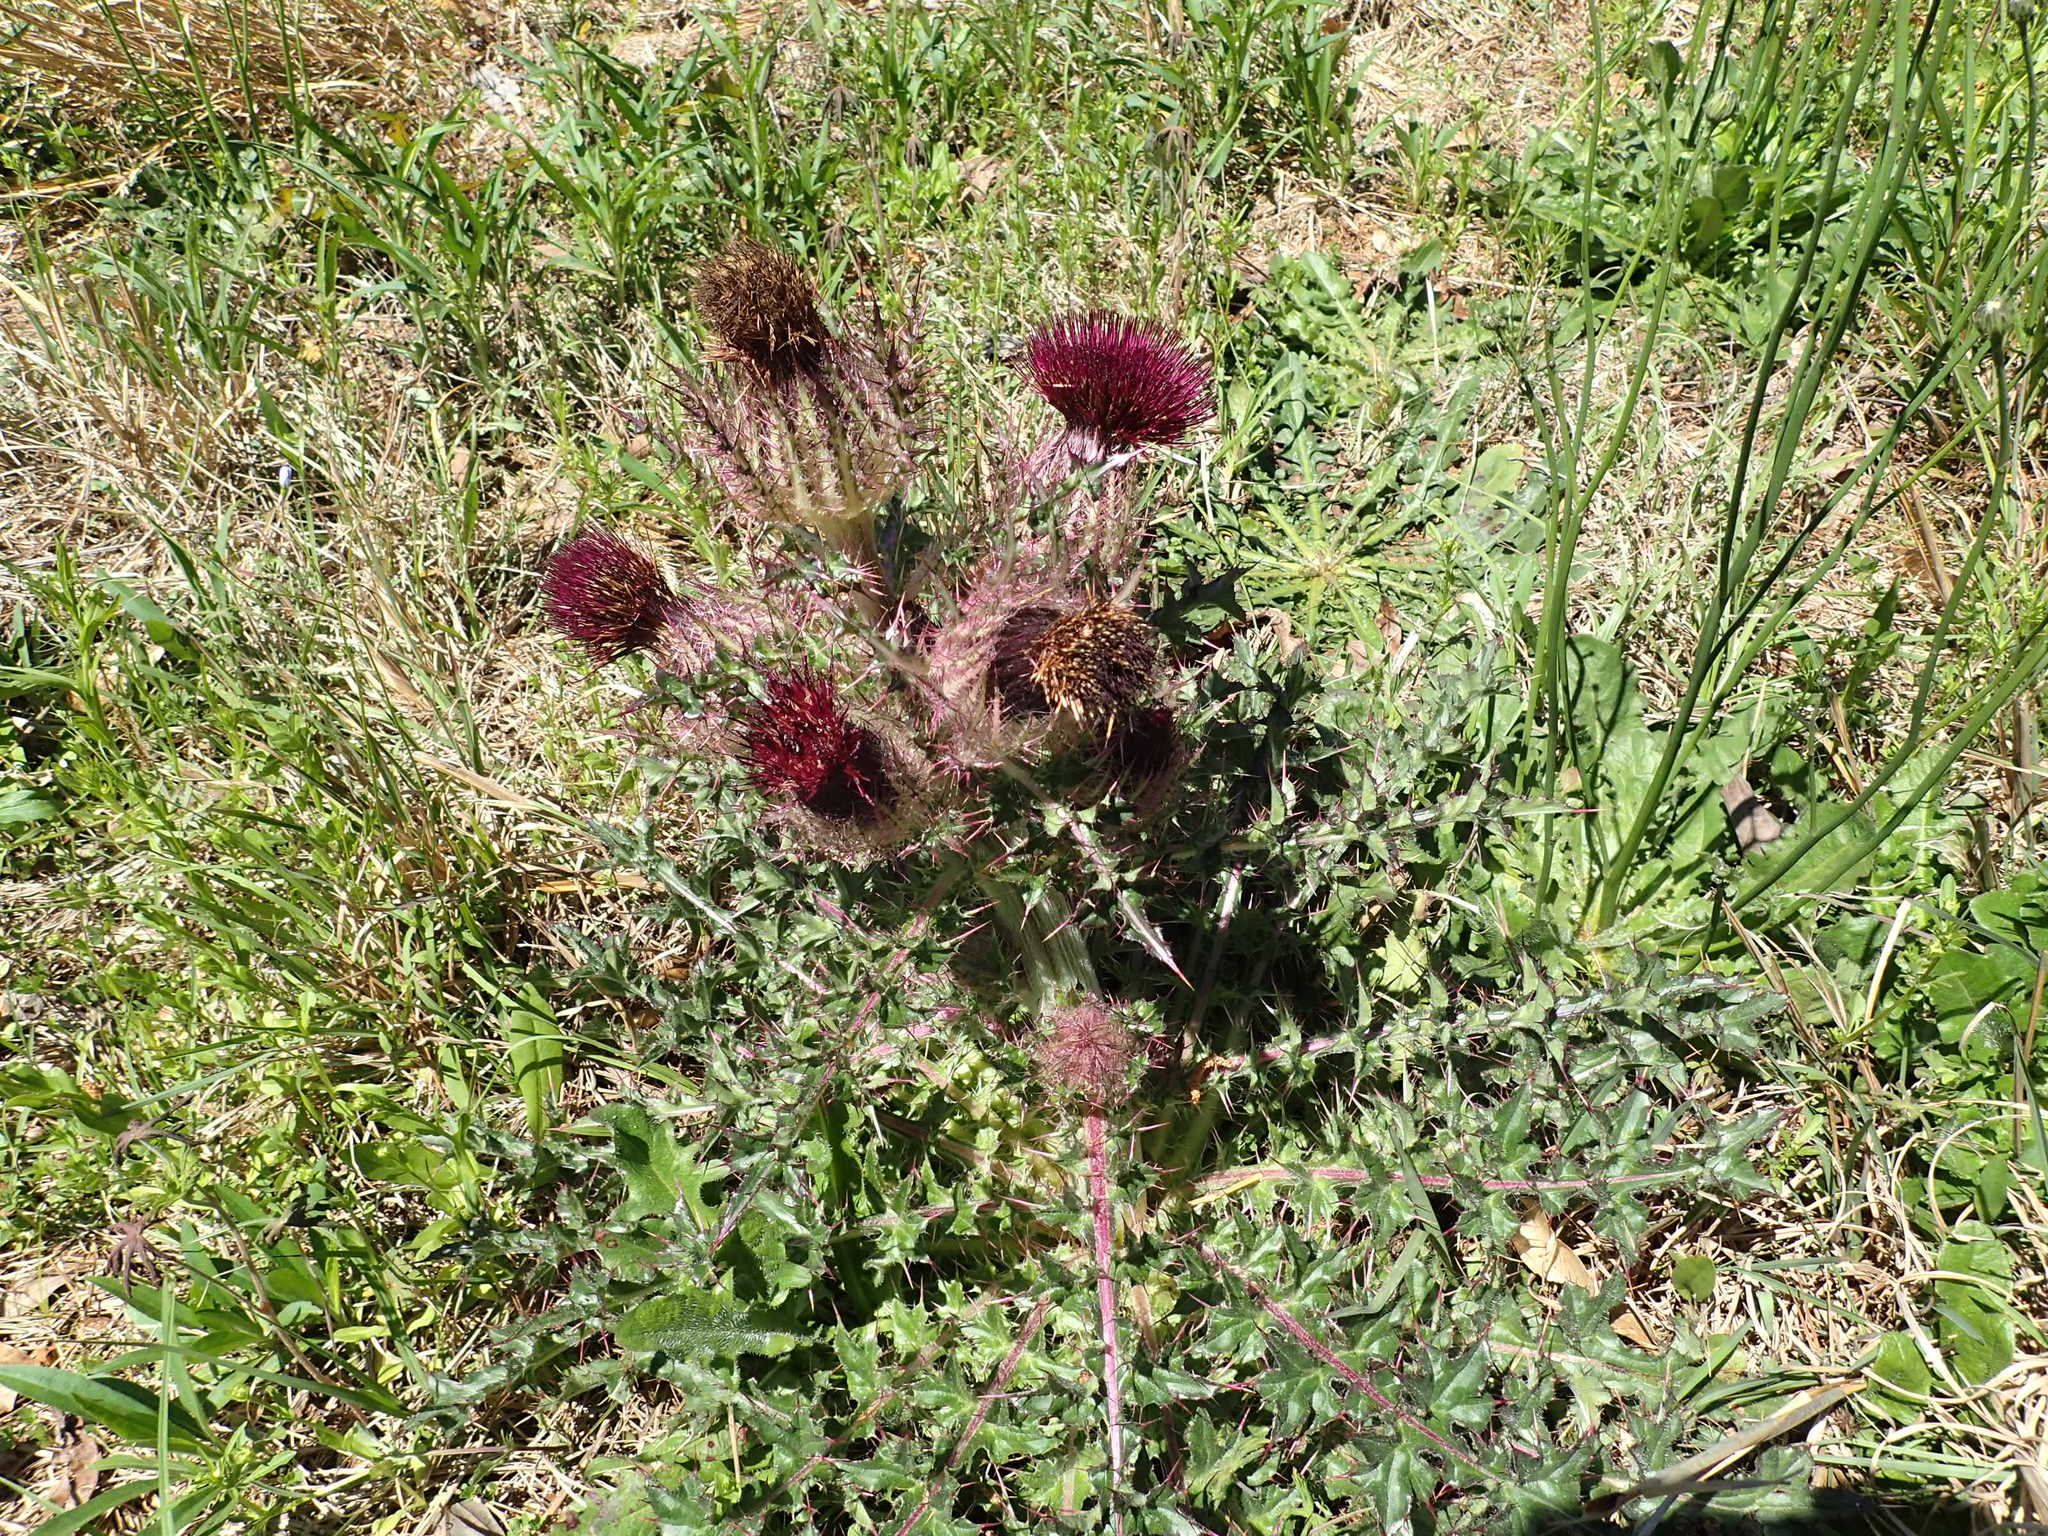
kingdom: Plantae
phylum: Tracheophyta
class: Magnoliopsida
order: Asterales
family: Asteraceae
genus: Cirsium
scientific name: Cirsium horridulum
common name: Bristly thistle
